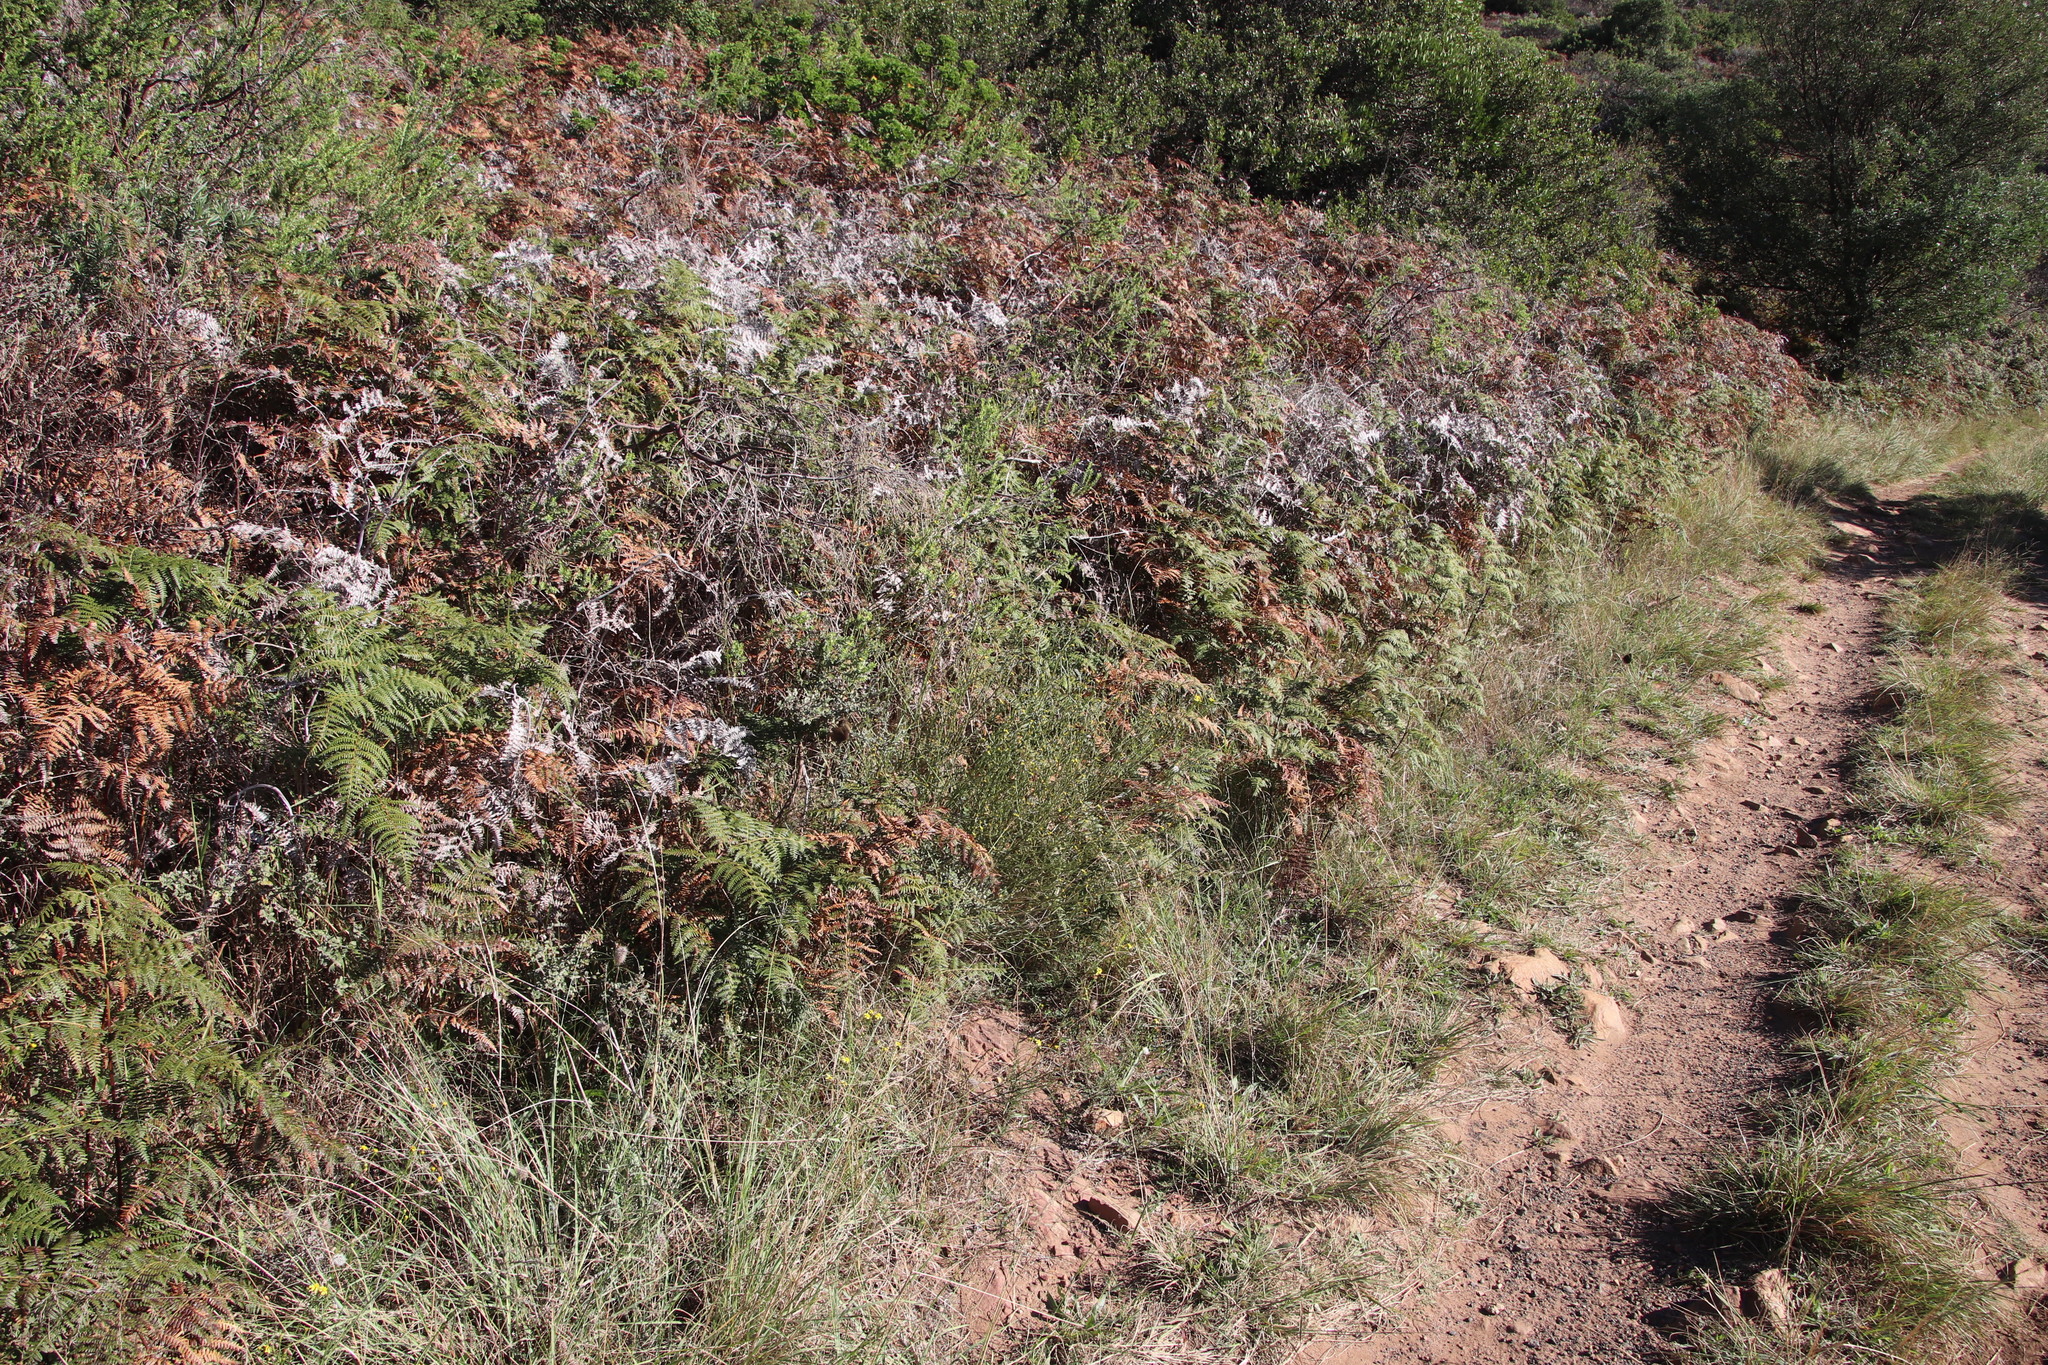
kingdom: Plantae
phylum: Tracheophyta
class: Magnoliopsida
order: Asterales
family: Asteraceae
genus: Senecio
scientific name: Senecio pubigerus
